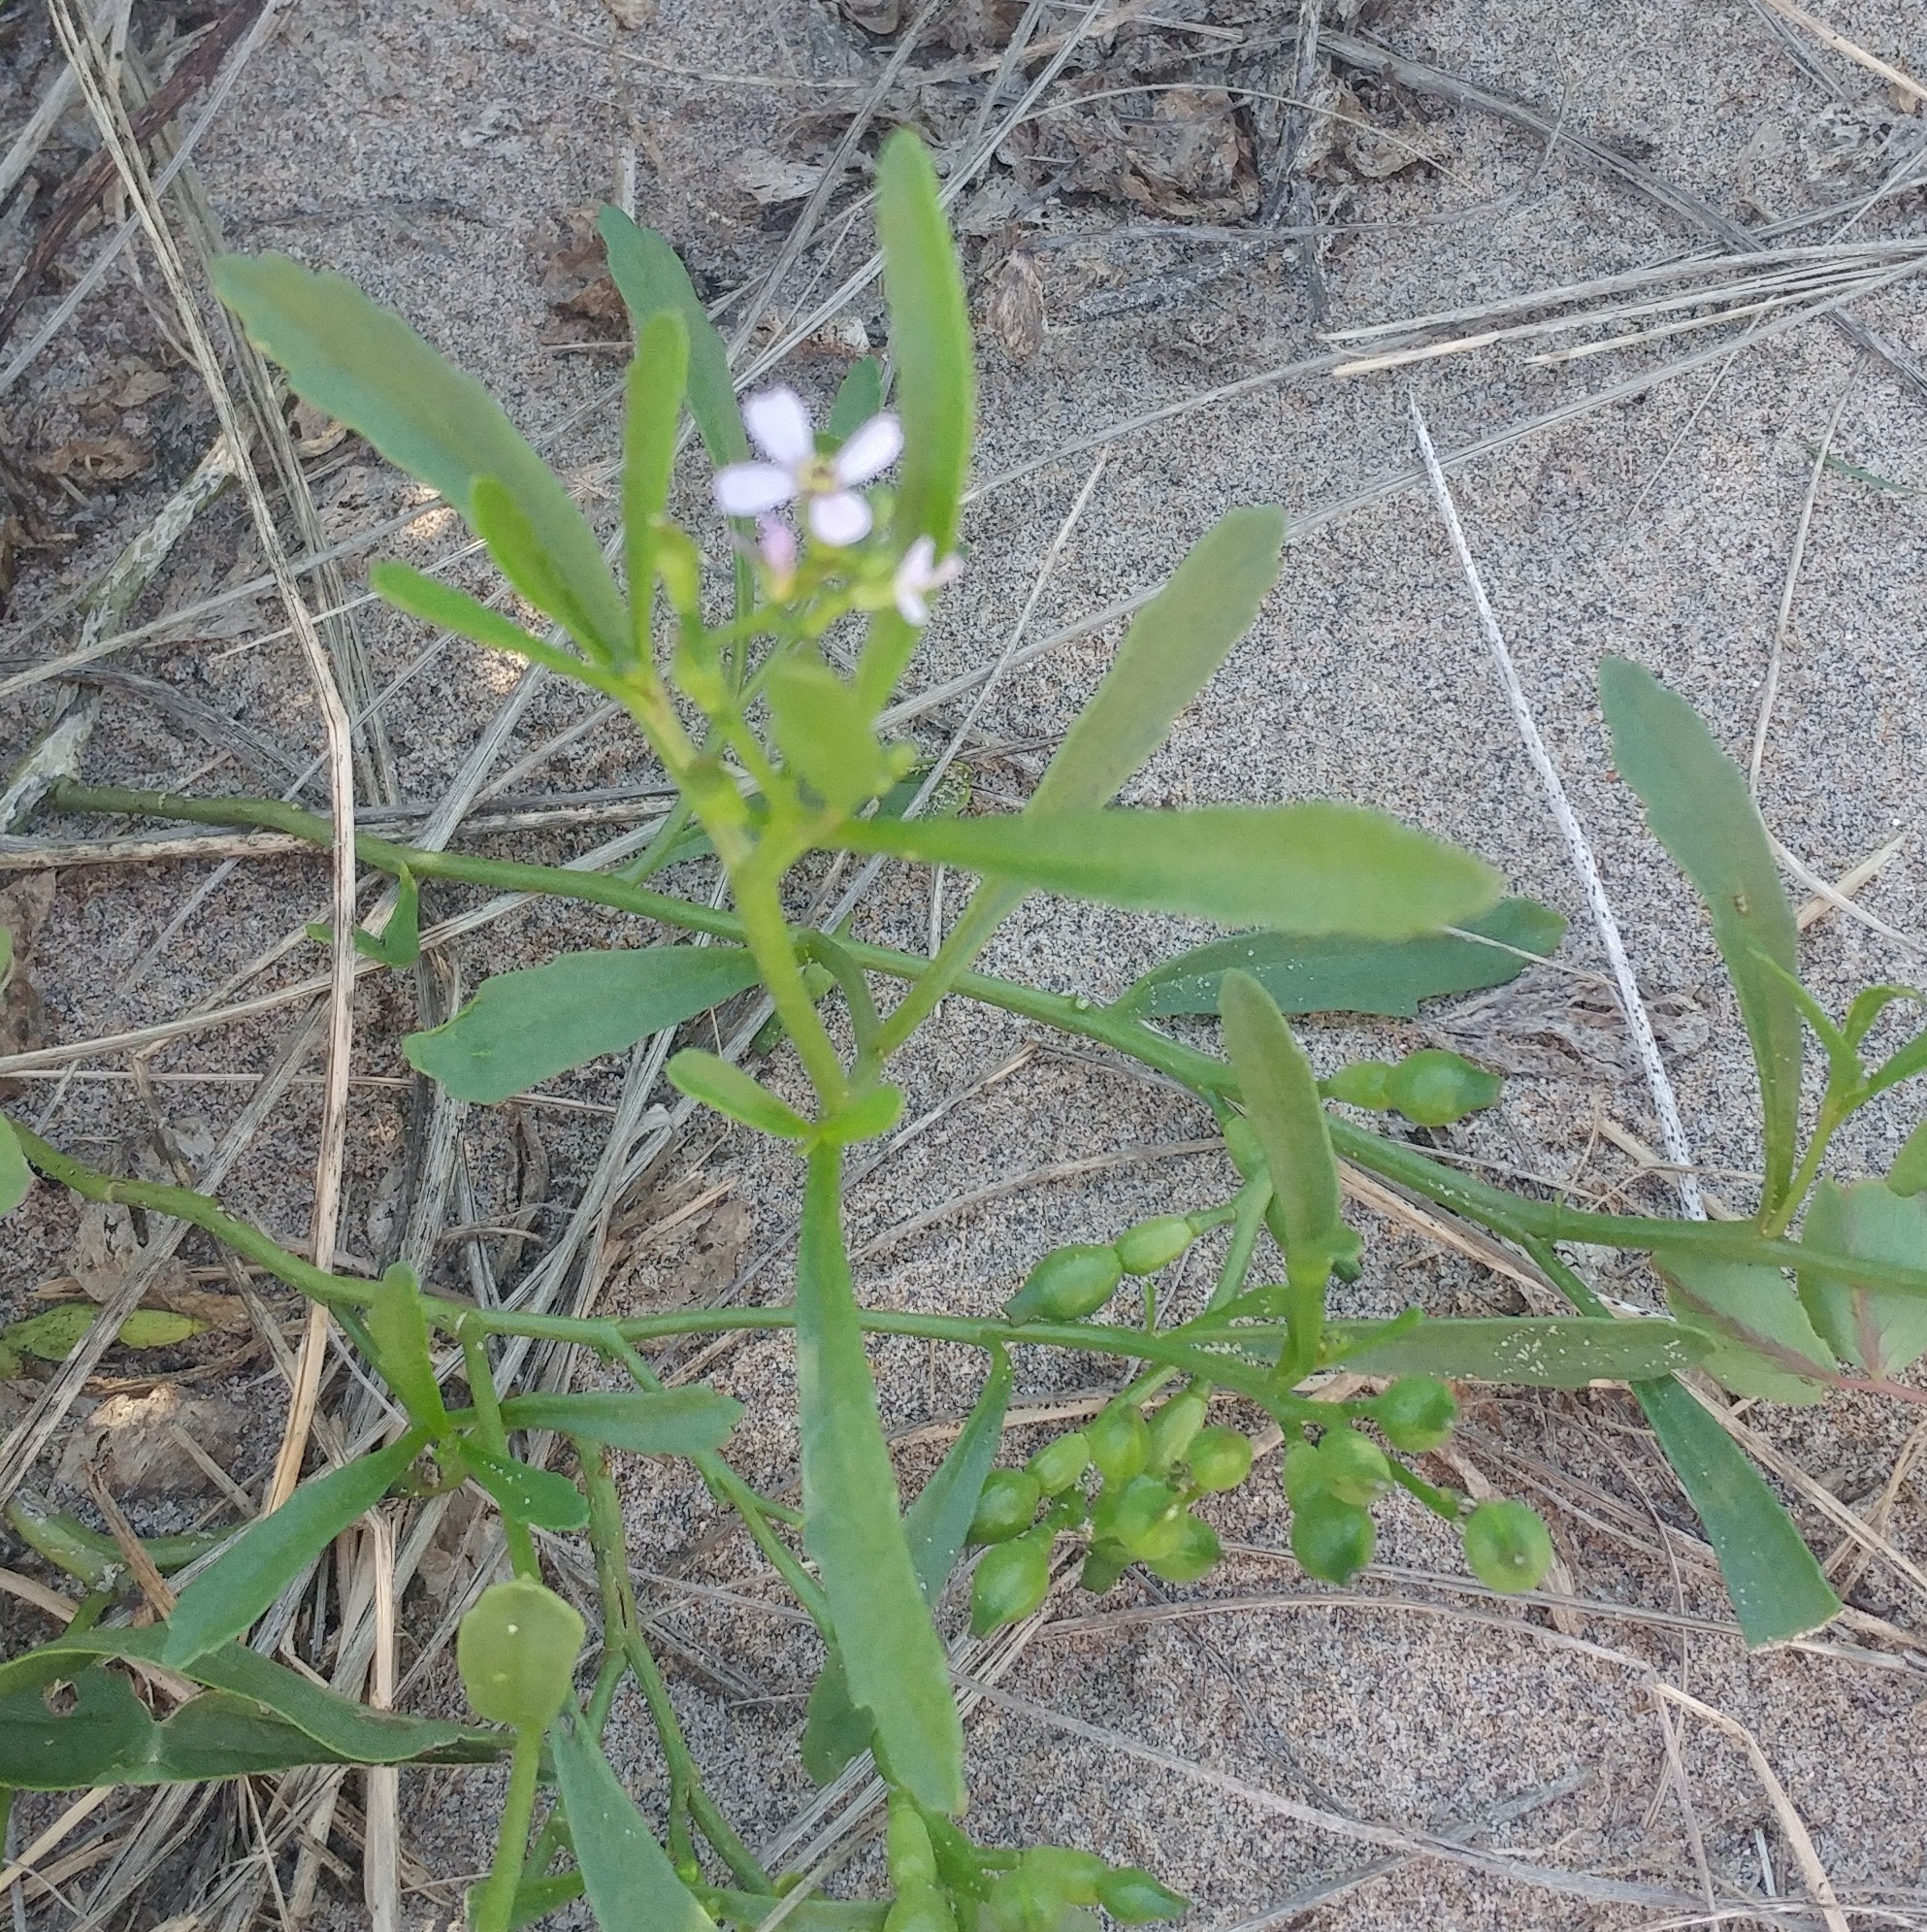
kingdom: Plantae
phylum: Tracheophyta
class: Magnoliopsida
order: Brassicales
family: Brassicaceae
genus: Cakile
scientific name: Cakile edentula
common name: American sea rocket
